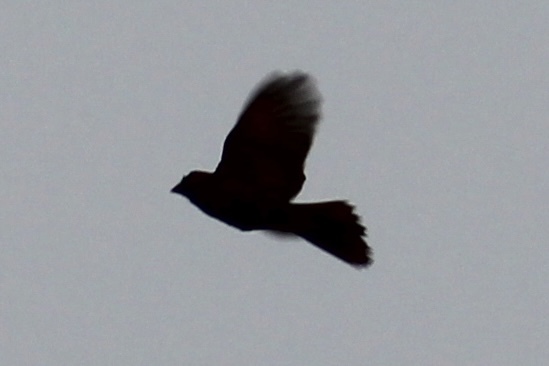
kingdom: Animalia
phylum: Chordata
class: Aves
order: Passeriformes
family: Cardinalidae
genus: Cardinalis
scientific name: Cardinalis cardinalis
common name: Northern cardinal
